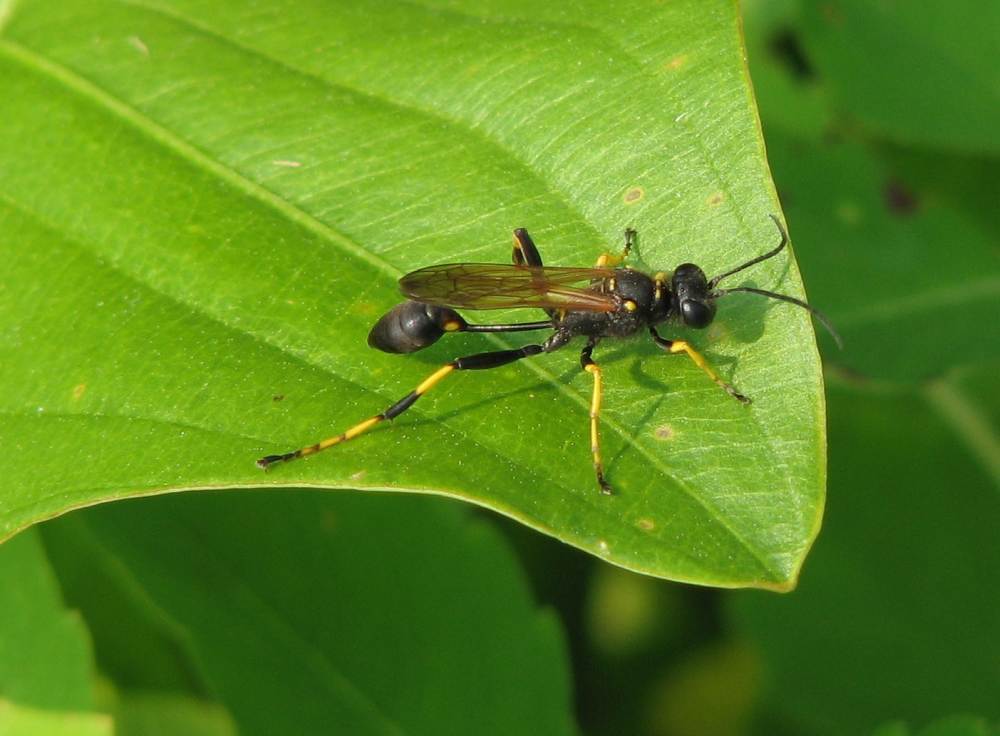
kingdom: Animalia
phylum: Arthropoda
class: Insecta
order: Hymenoptera
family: Sphecidae
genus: Sceliphron
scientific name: Sceliphron caementarium
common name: Mud dauber
